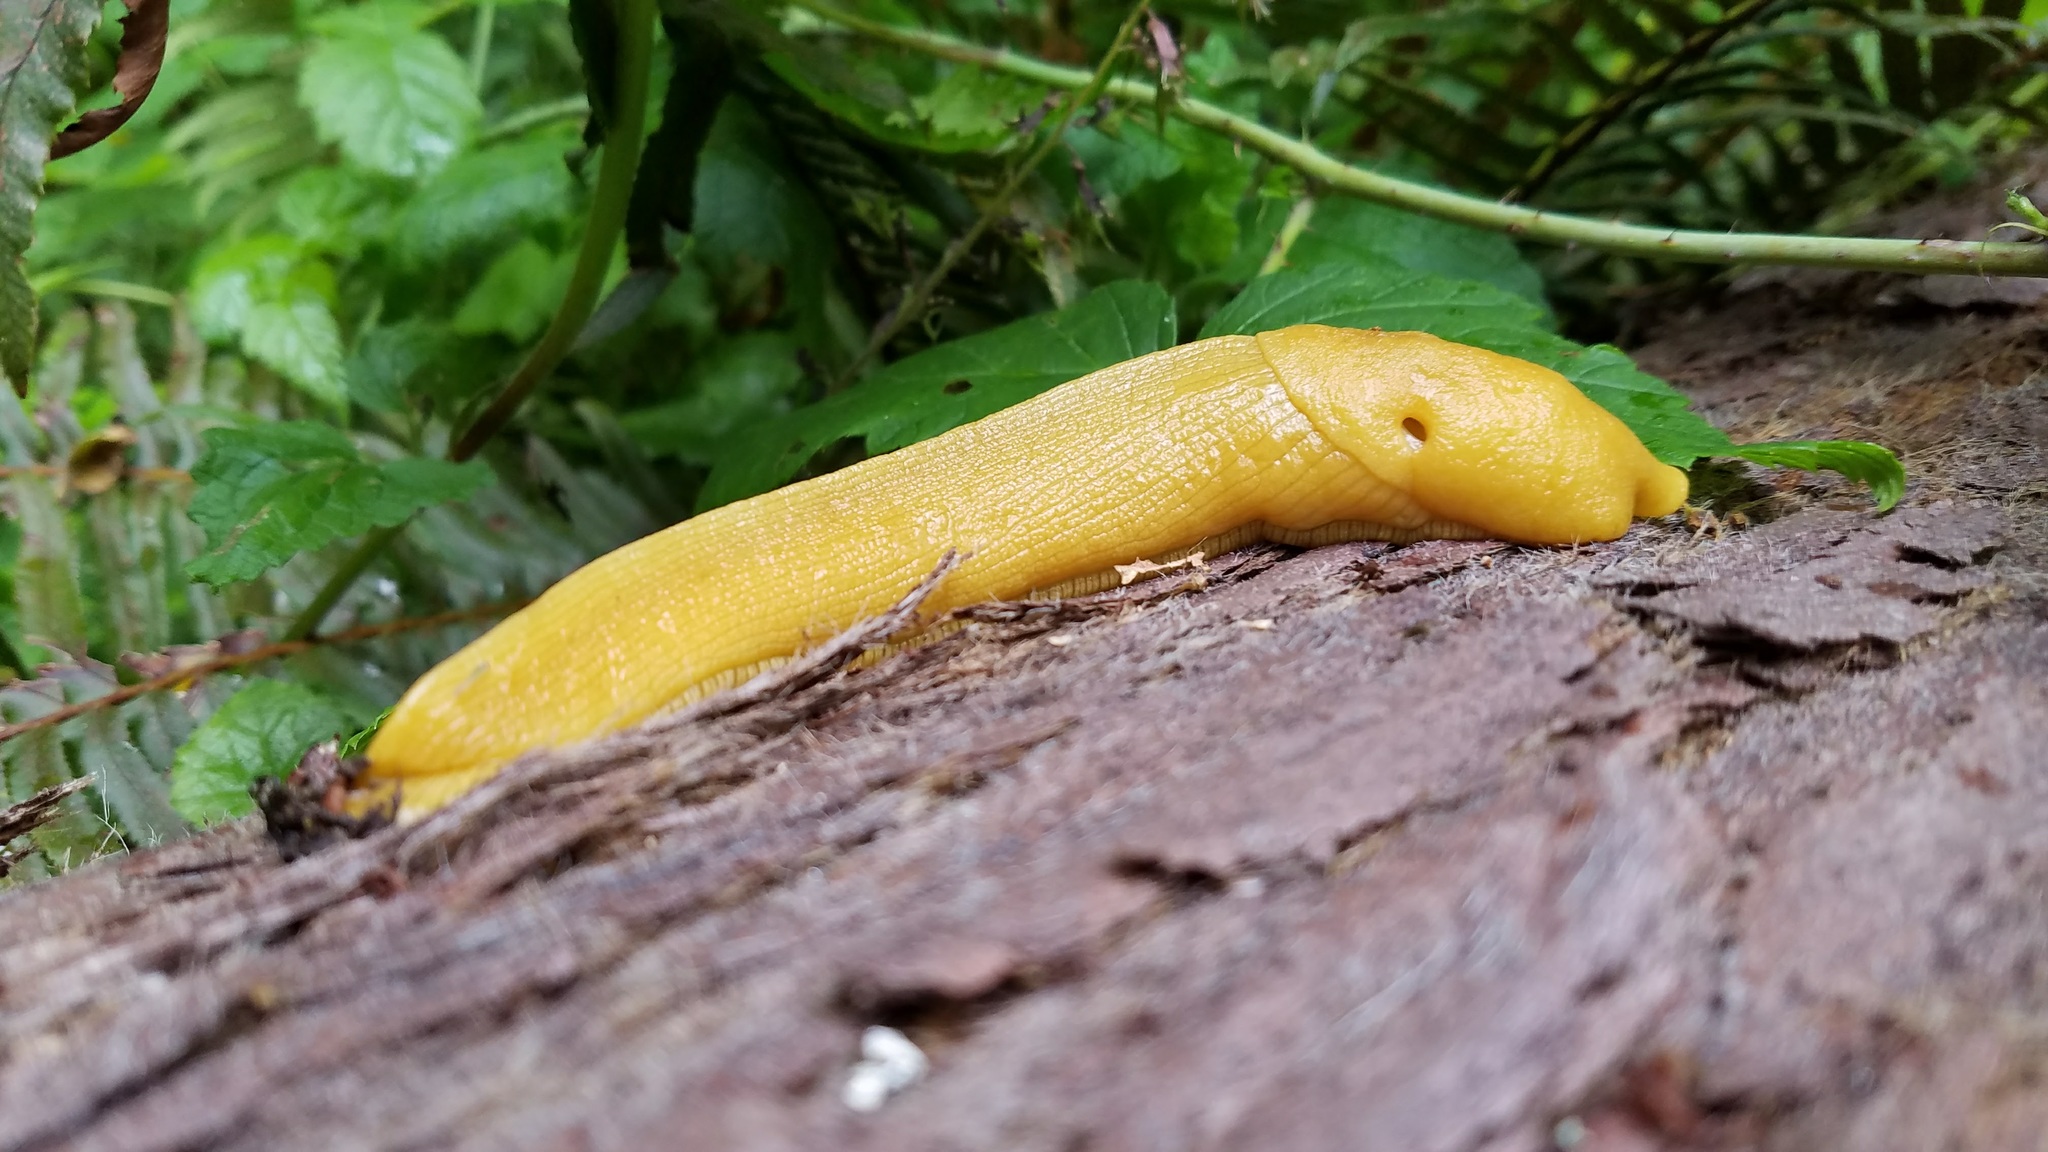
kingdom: Animalia
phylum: Mollusca
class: Gastropoda
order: Stylommatophora
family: Ariolimacidae
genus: Ariolimax
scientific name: Ariolimax columbianus
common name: Pacific banana slug
